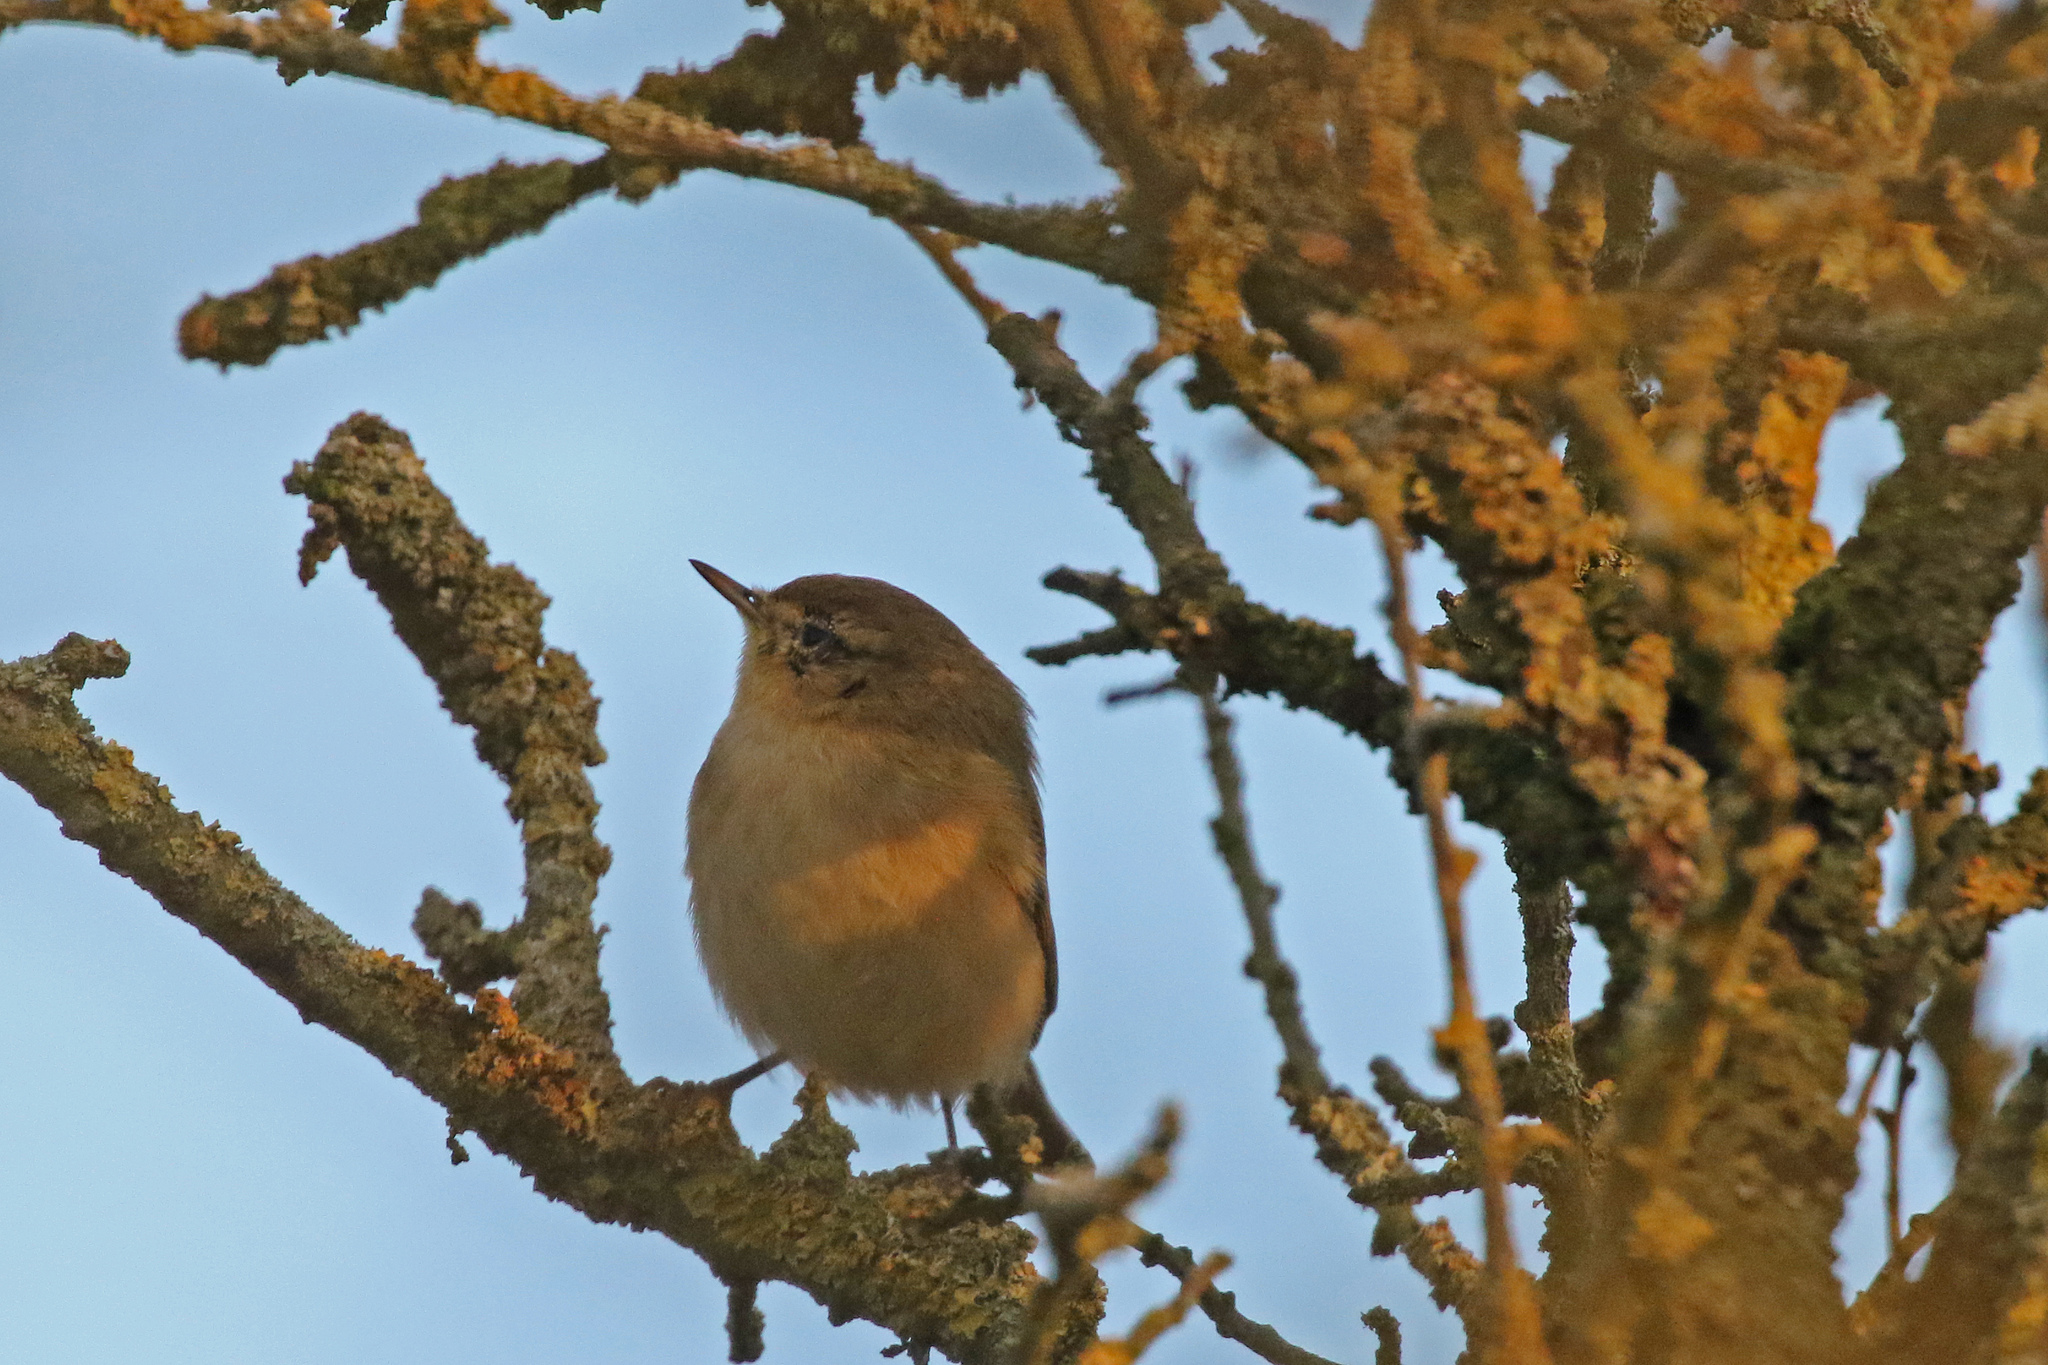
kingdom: Animalia
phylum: Chordata
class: Aves
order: Passeriformes
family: Phylloscopidae
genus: Phylloscopus
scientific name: Phylloscopus collybita
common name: Common chiffchaff
